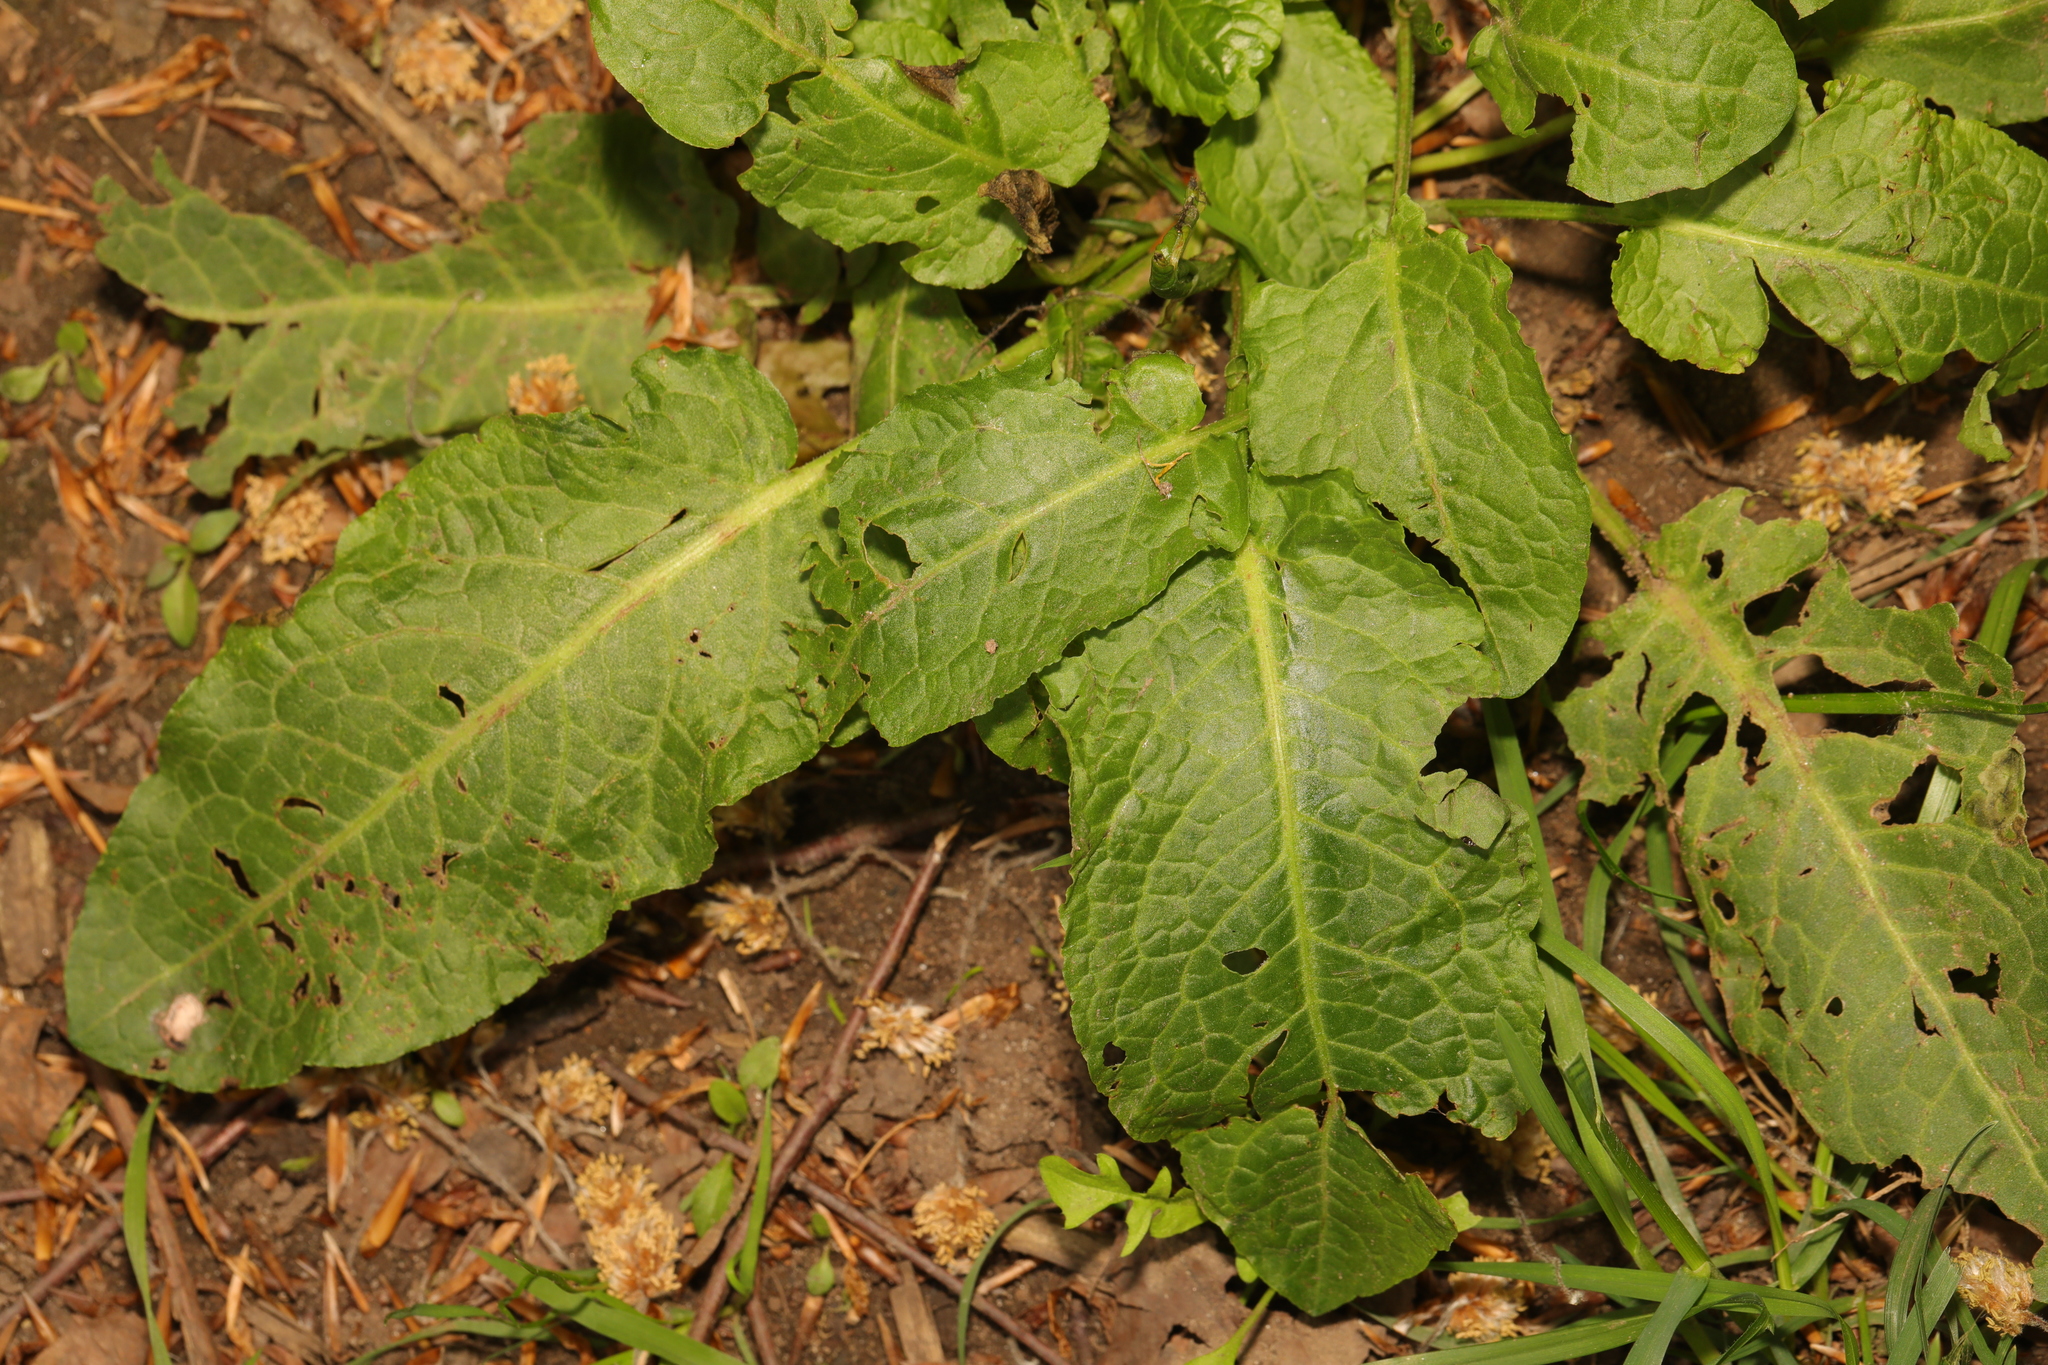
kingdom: Plantae
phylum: Tracheophyta
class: Magnoliopsida
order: Caryophyllales
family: Polygonaceae
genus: Rumex
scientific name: Rumex obtusifolius
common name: Bitter dock
